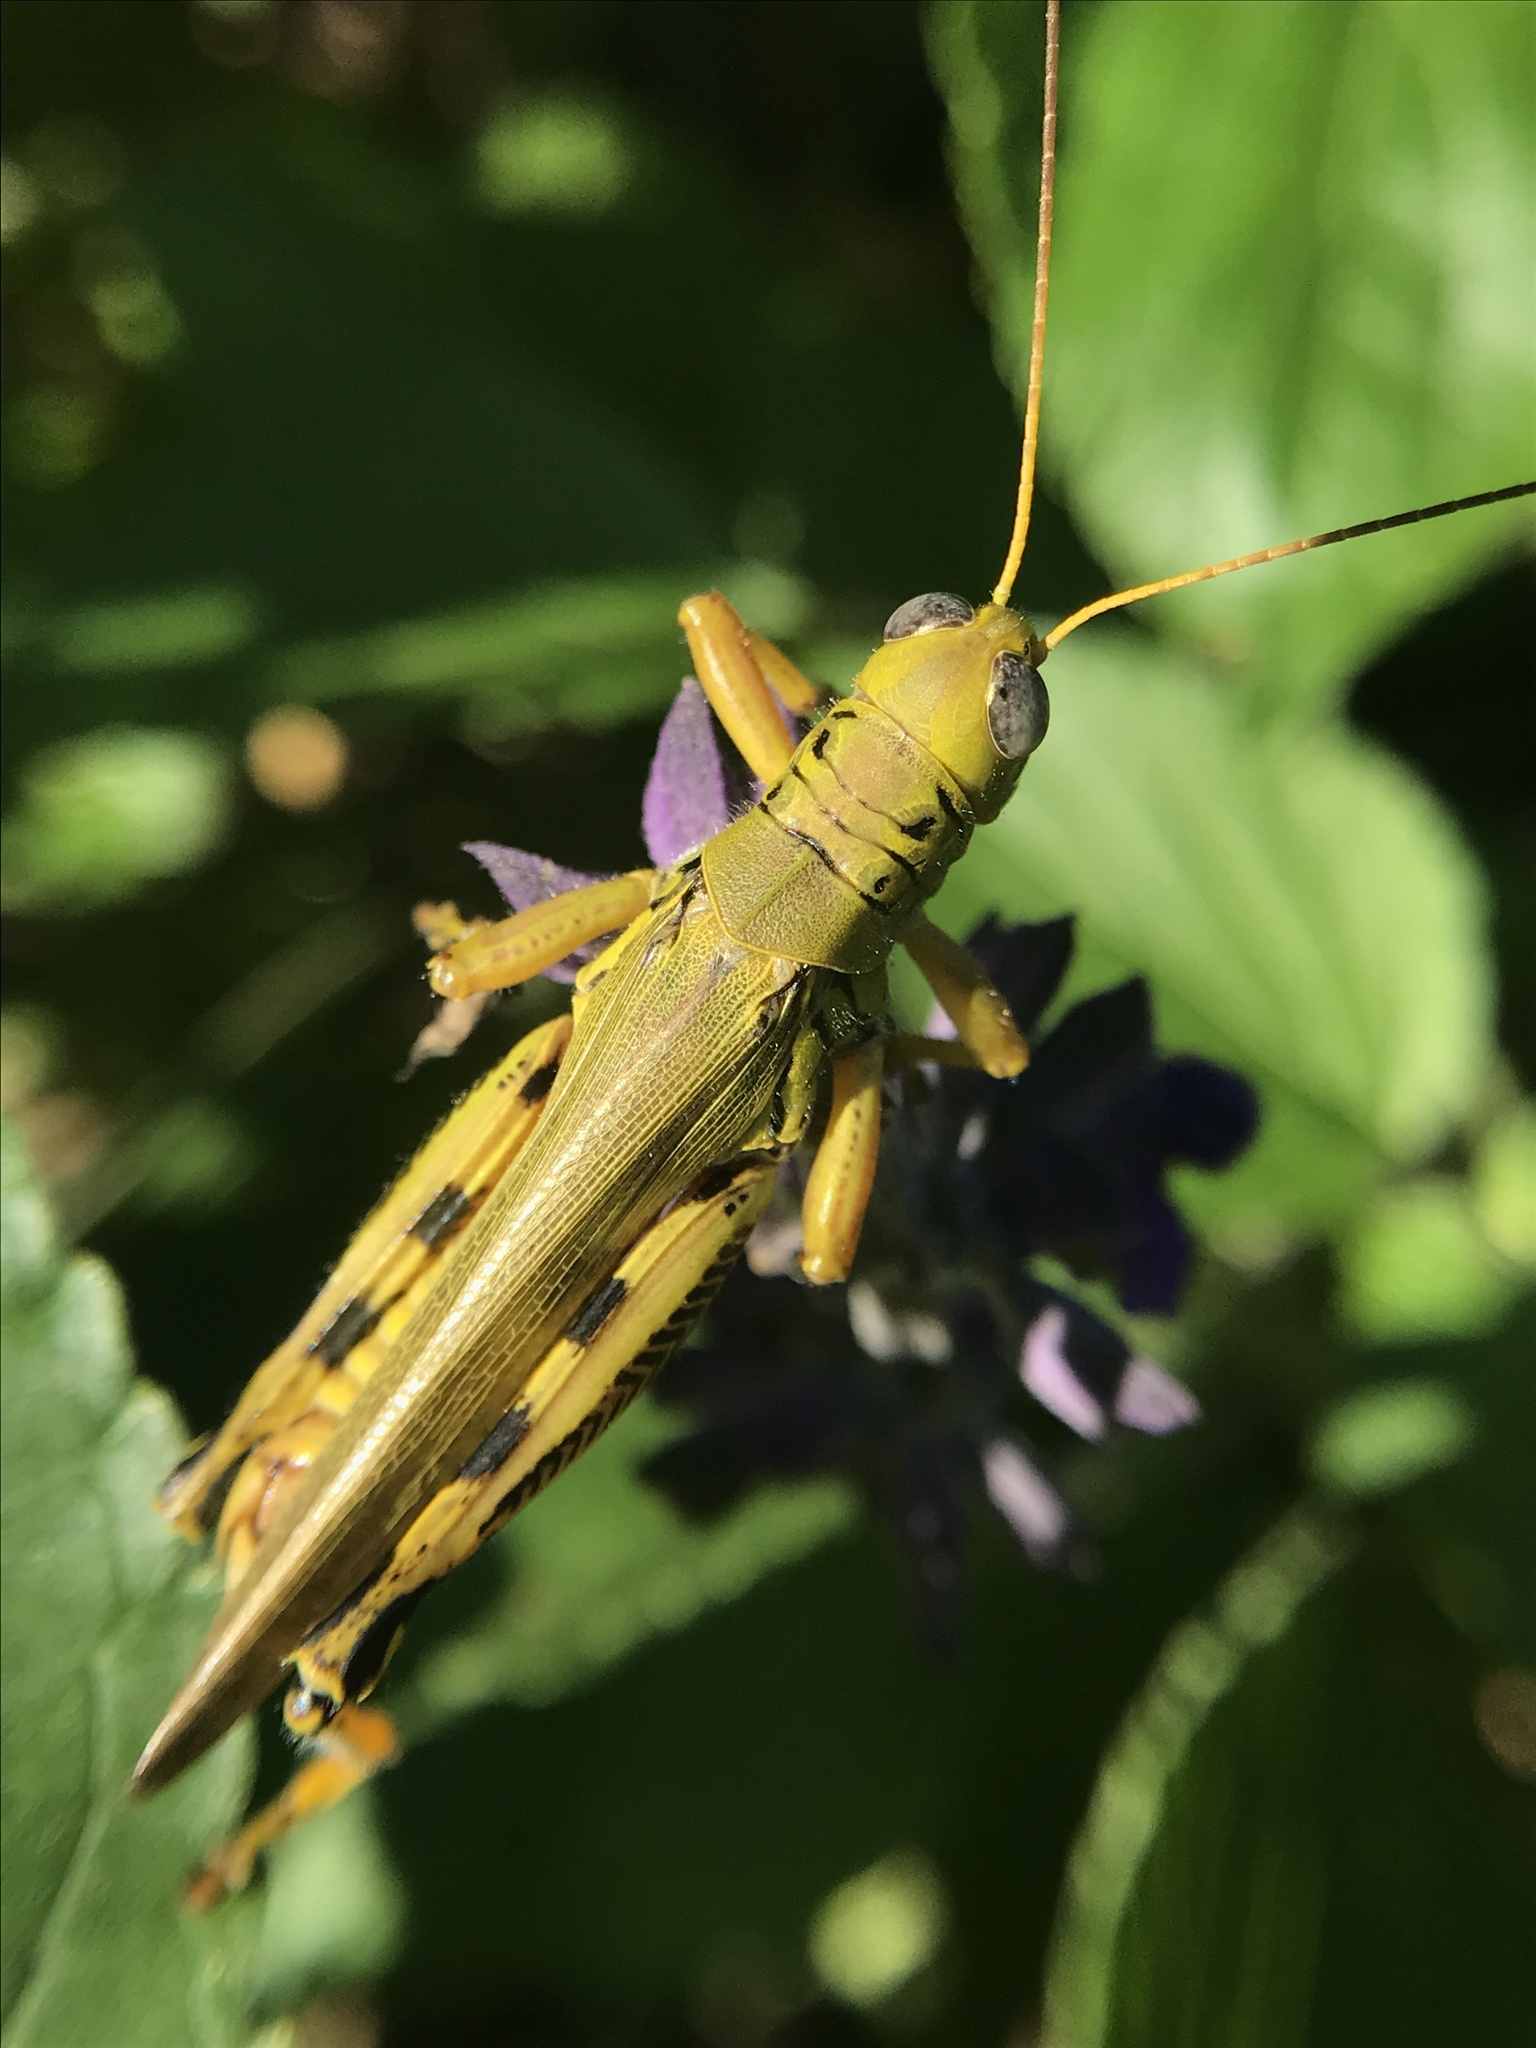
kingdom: Animalia
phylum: Arthropoda
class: Insecta
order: Orthoptera
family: Acrididae
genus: Melanoplus
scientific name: Melanoplus differentialis
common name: Differential grasshopper
